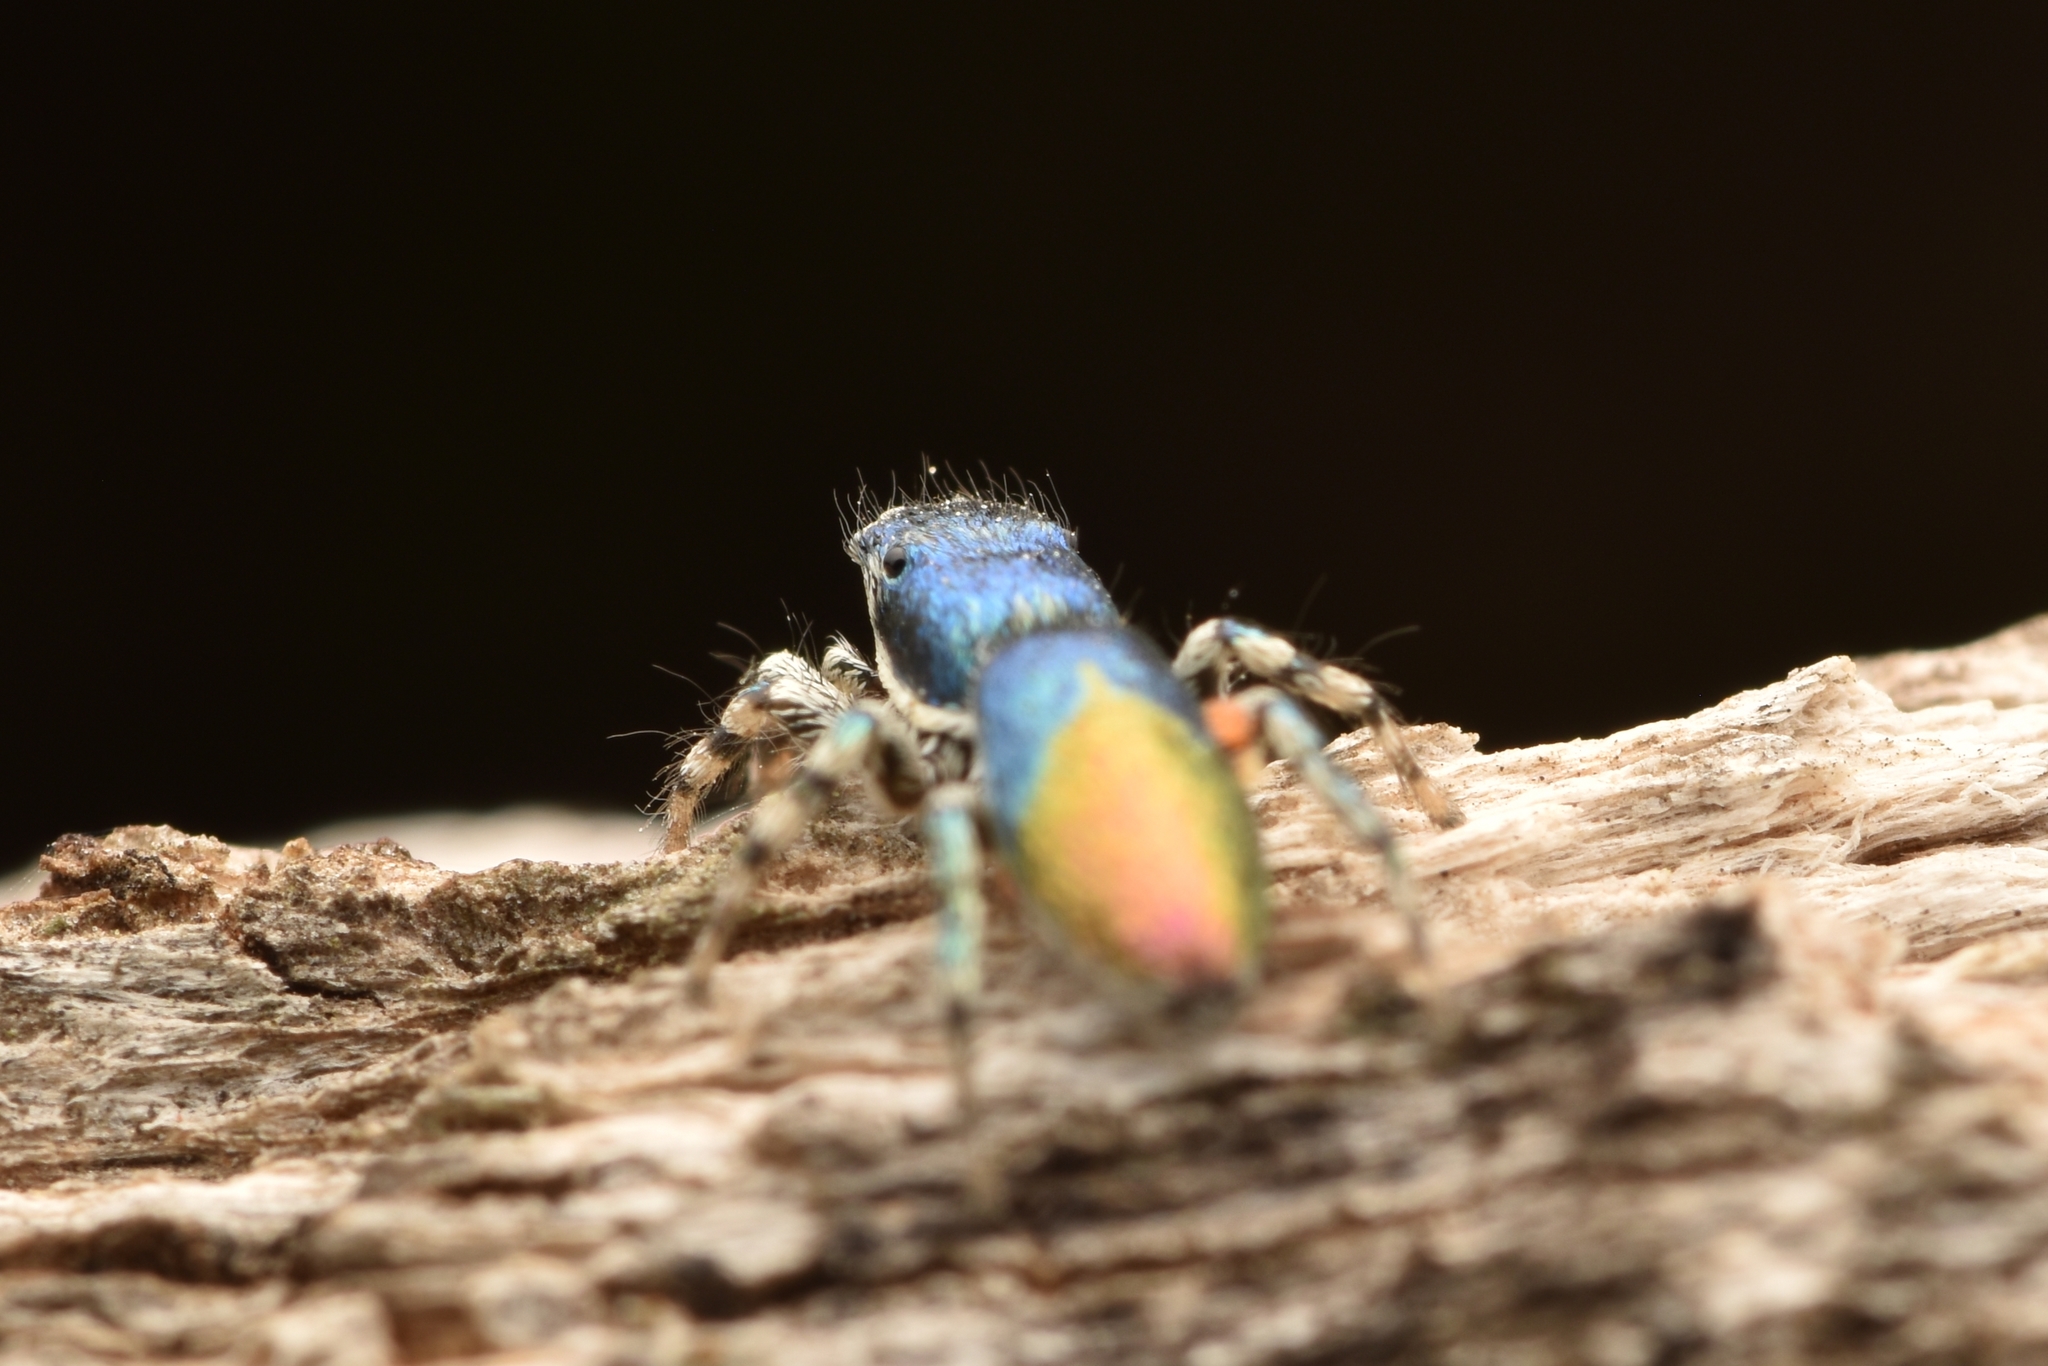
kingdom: Animalia
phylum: Arthropoda
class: Arachnida
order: Araneae
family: Salticidae
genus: Salticus
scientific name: Salticus peckhamae
